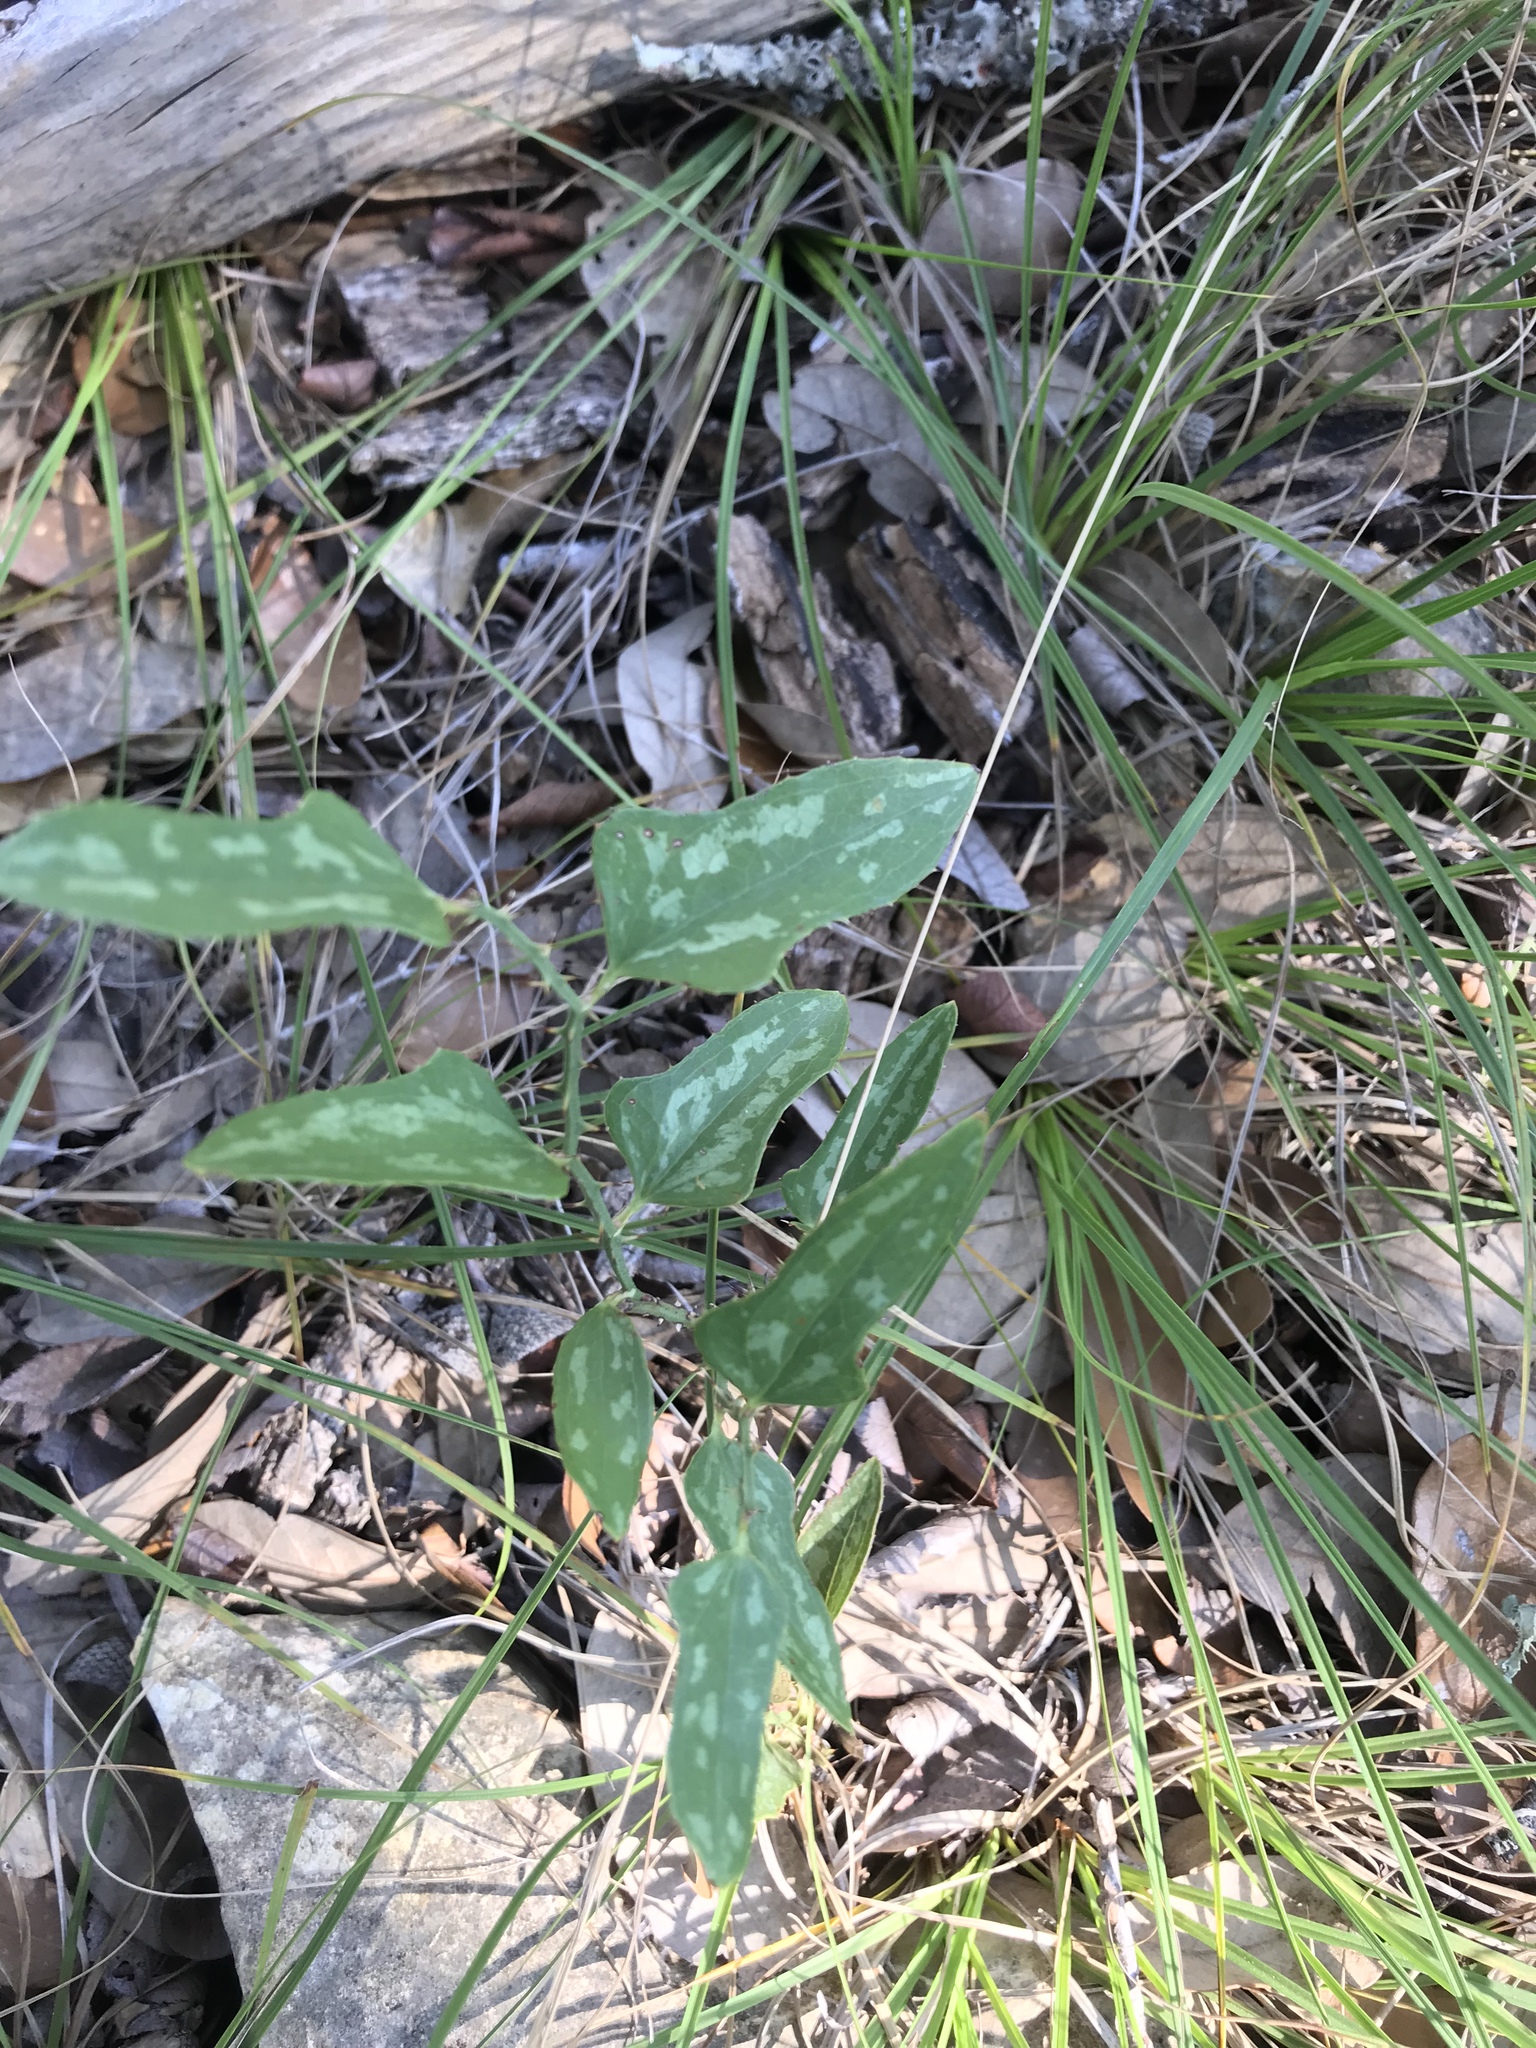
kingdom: Plantae
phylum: Tracheophyta
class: Liliopsida
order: Liliales
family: Smilacaceae
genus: Smilax
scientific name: Smilax bona-nox
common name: Catbrier
